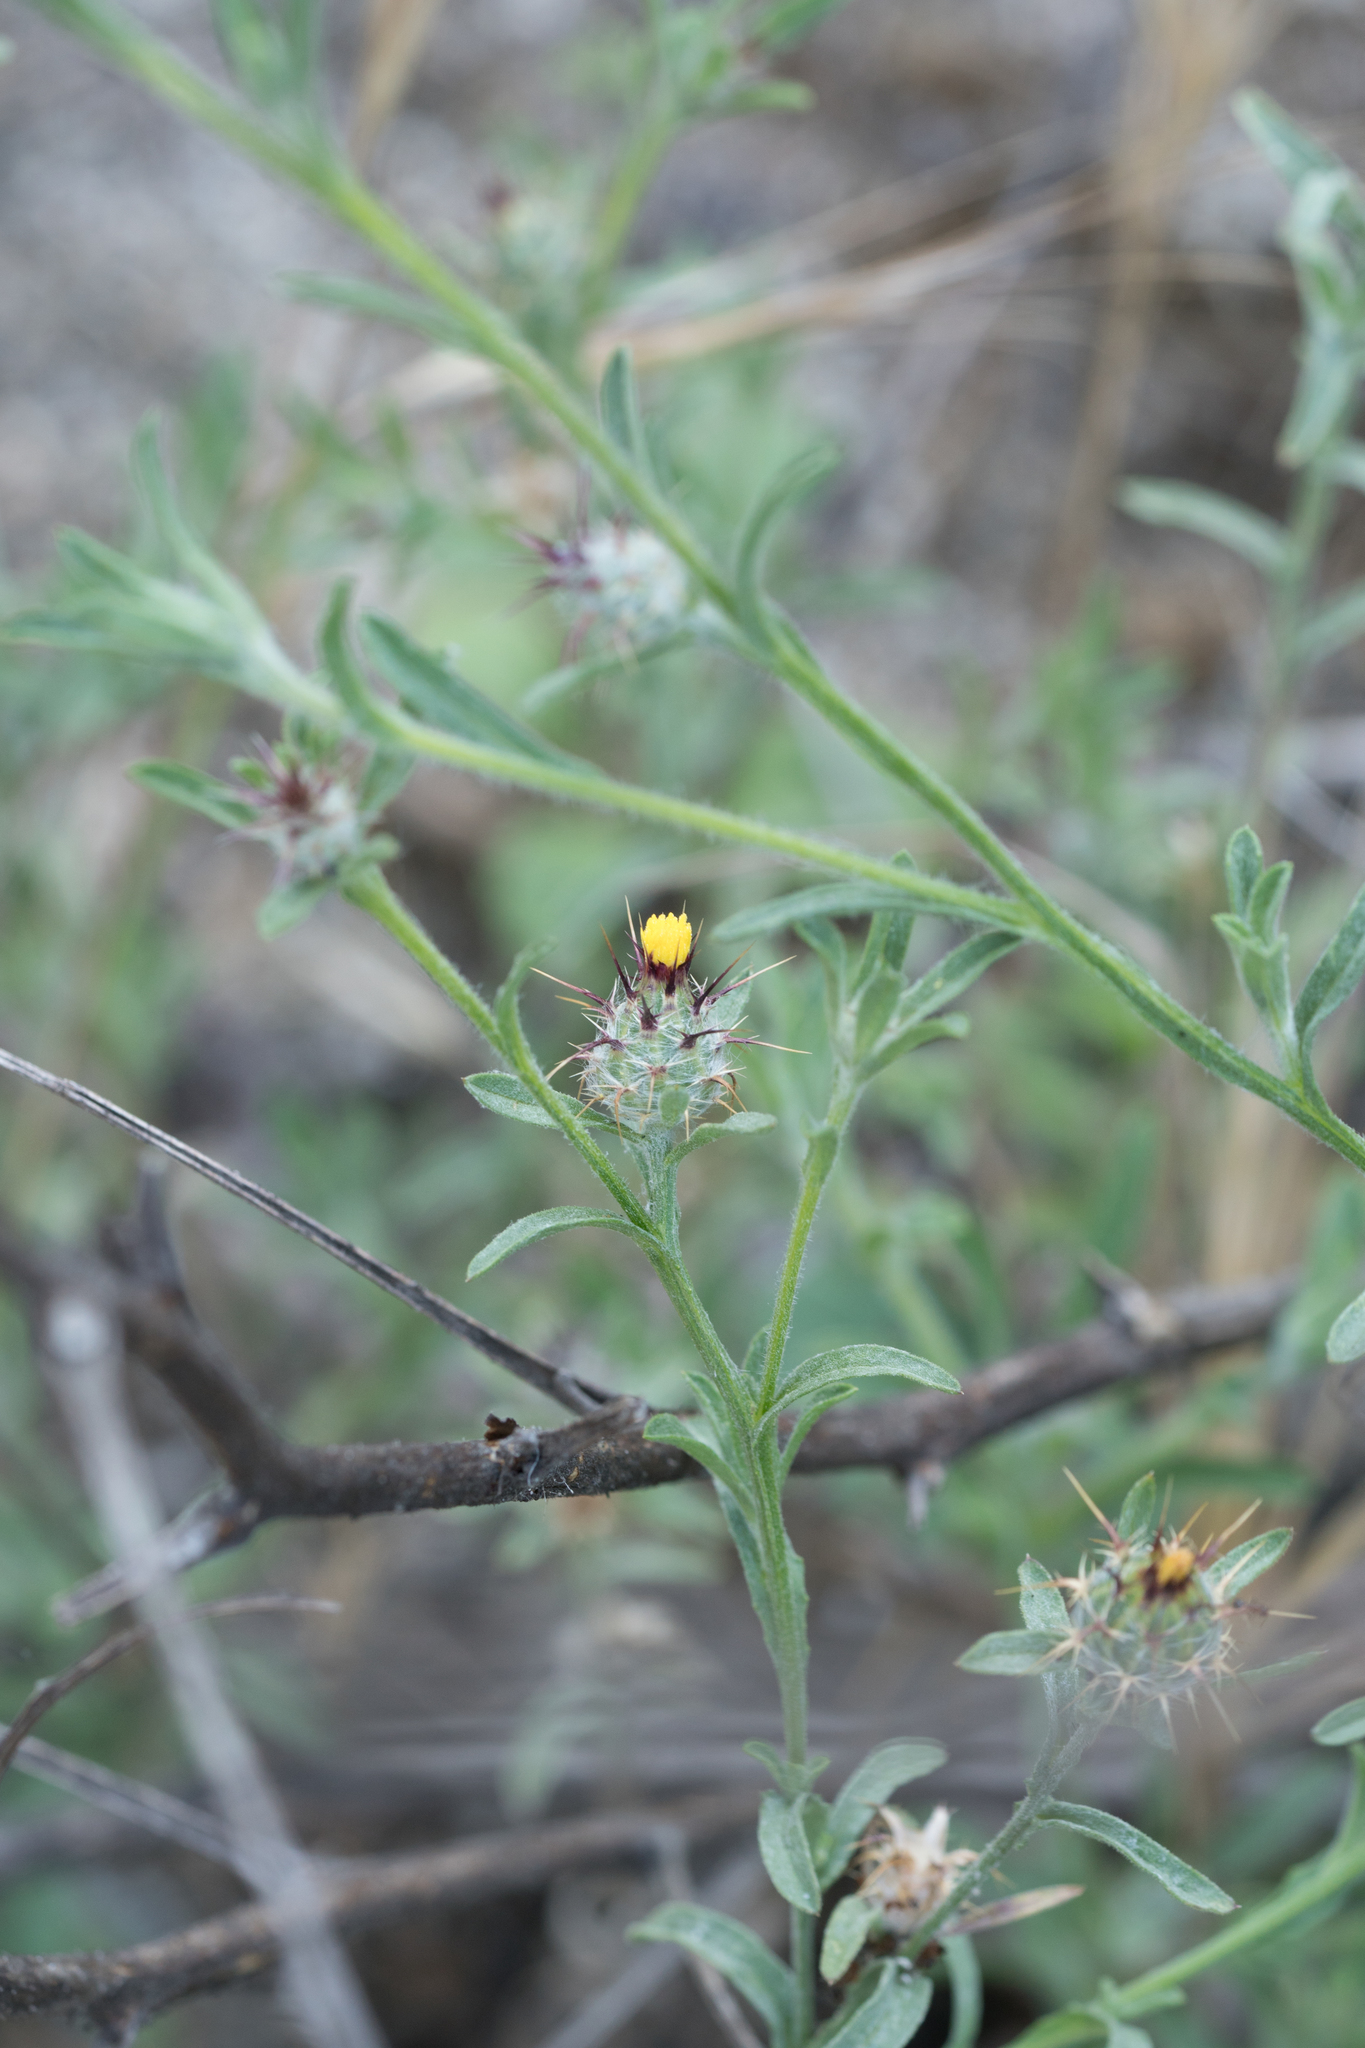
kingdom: Plantae
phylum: Tracheophyta
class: Magnoliopsida
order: Asterales
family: Asteraceae
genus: Centaurea
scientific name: Centaurea melitensis
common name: Maltese star-thistle
